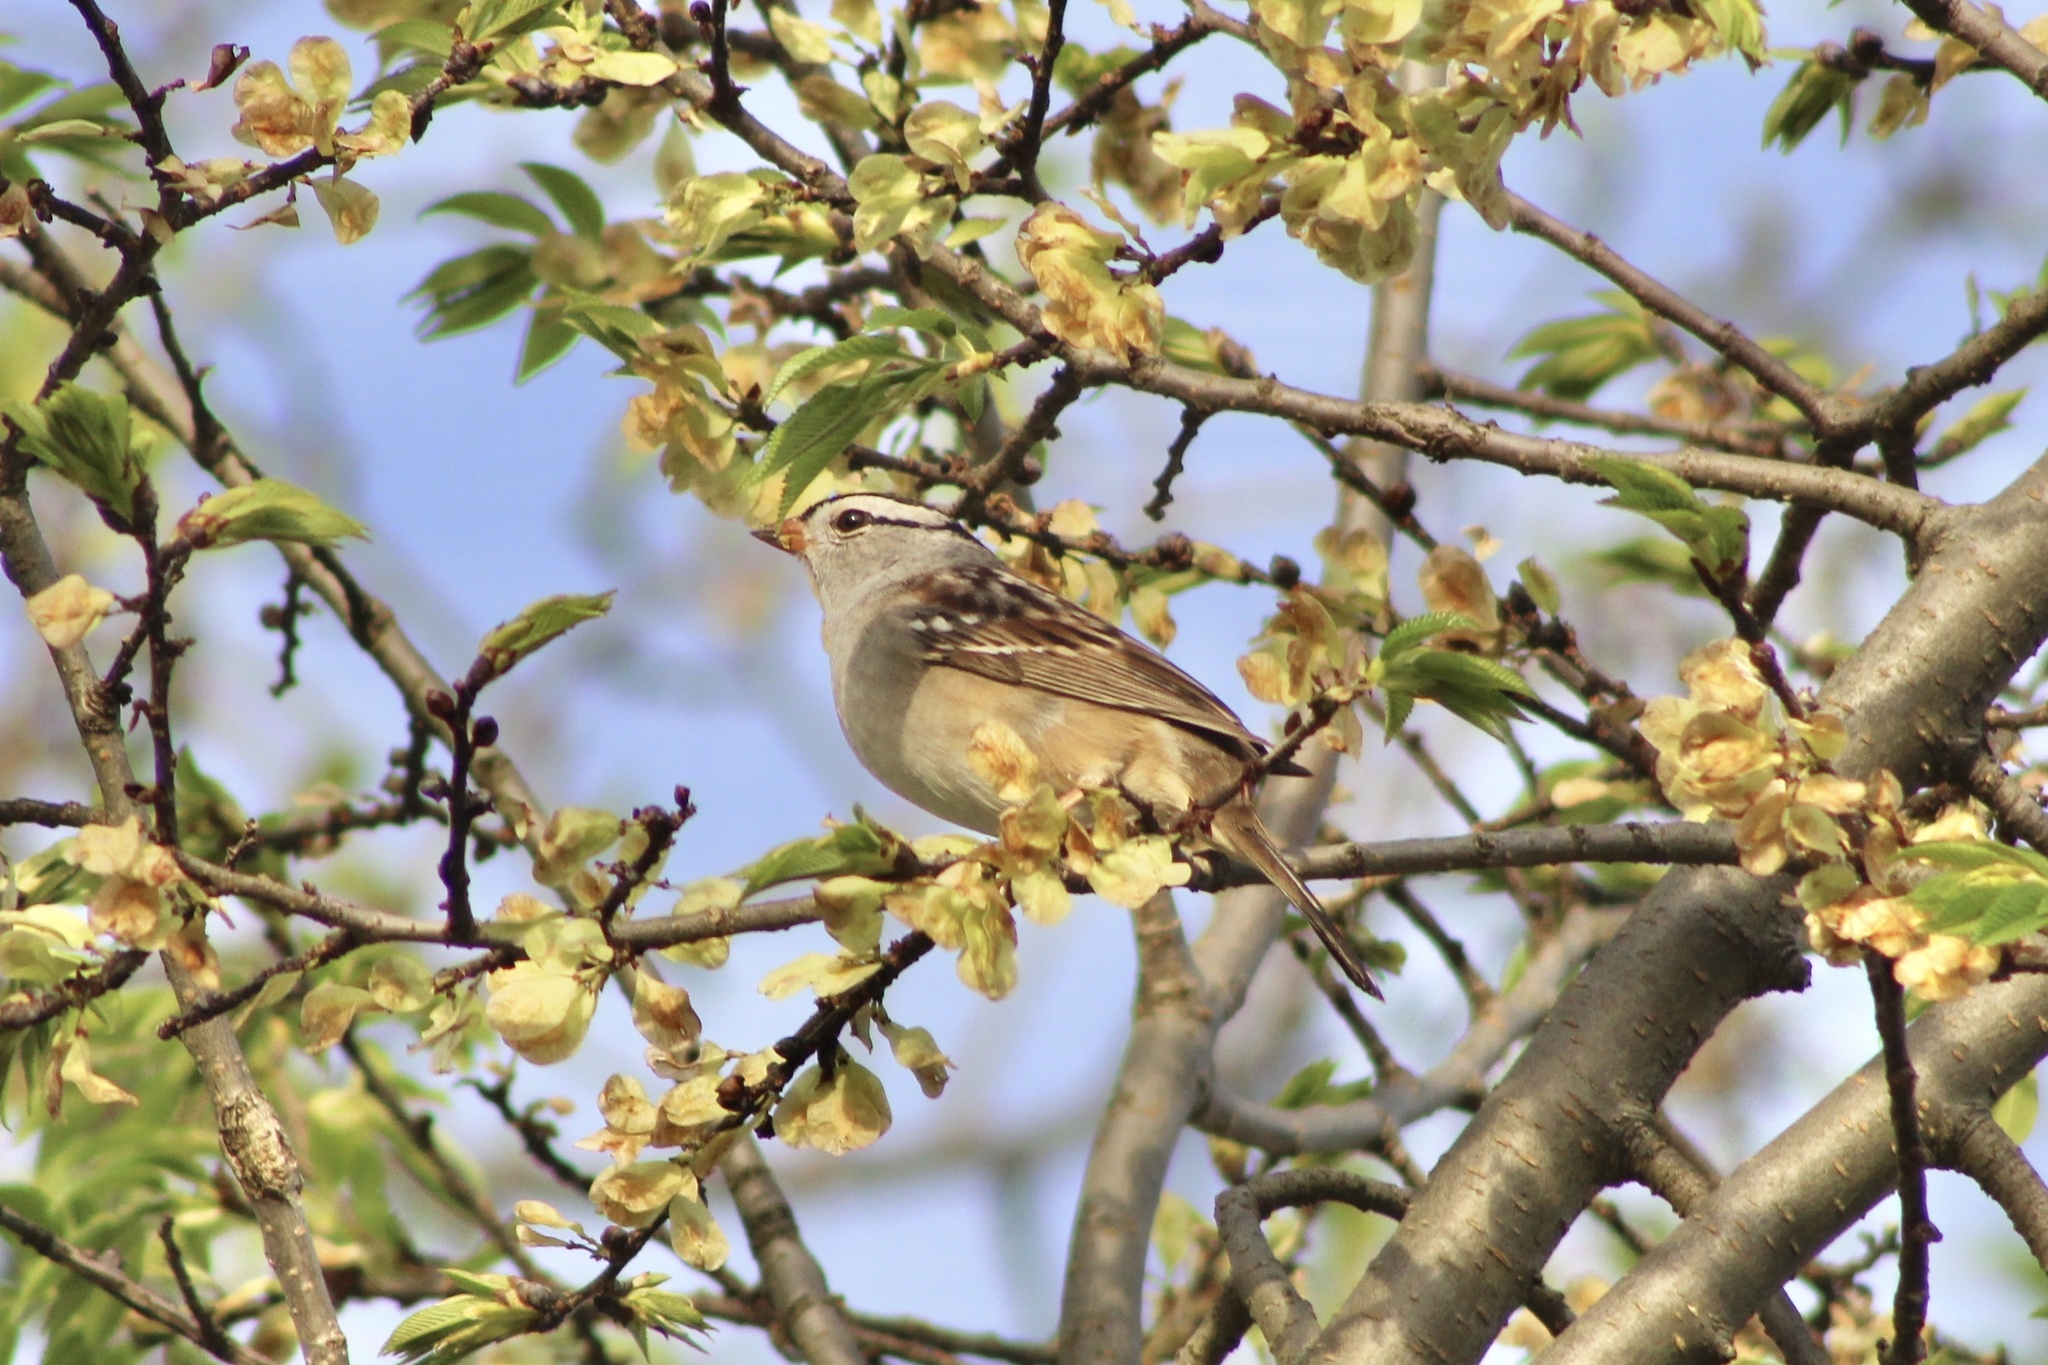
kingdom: Animalia
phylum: Chordata
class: Aves
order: Passeriformes
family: Passerellidae
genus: Zonotrichia
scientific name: Zonotrichia leucophrys
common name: White-crowned sparrow
